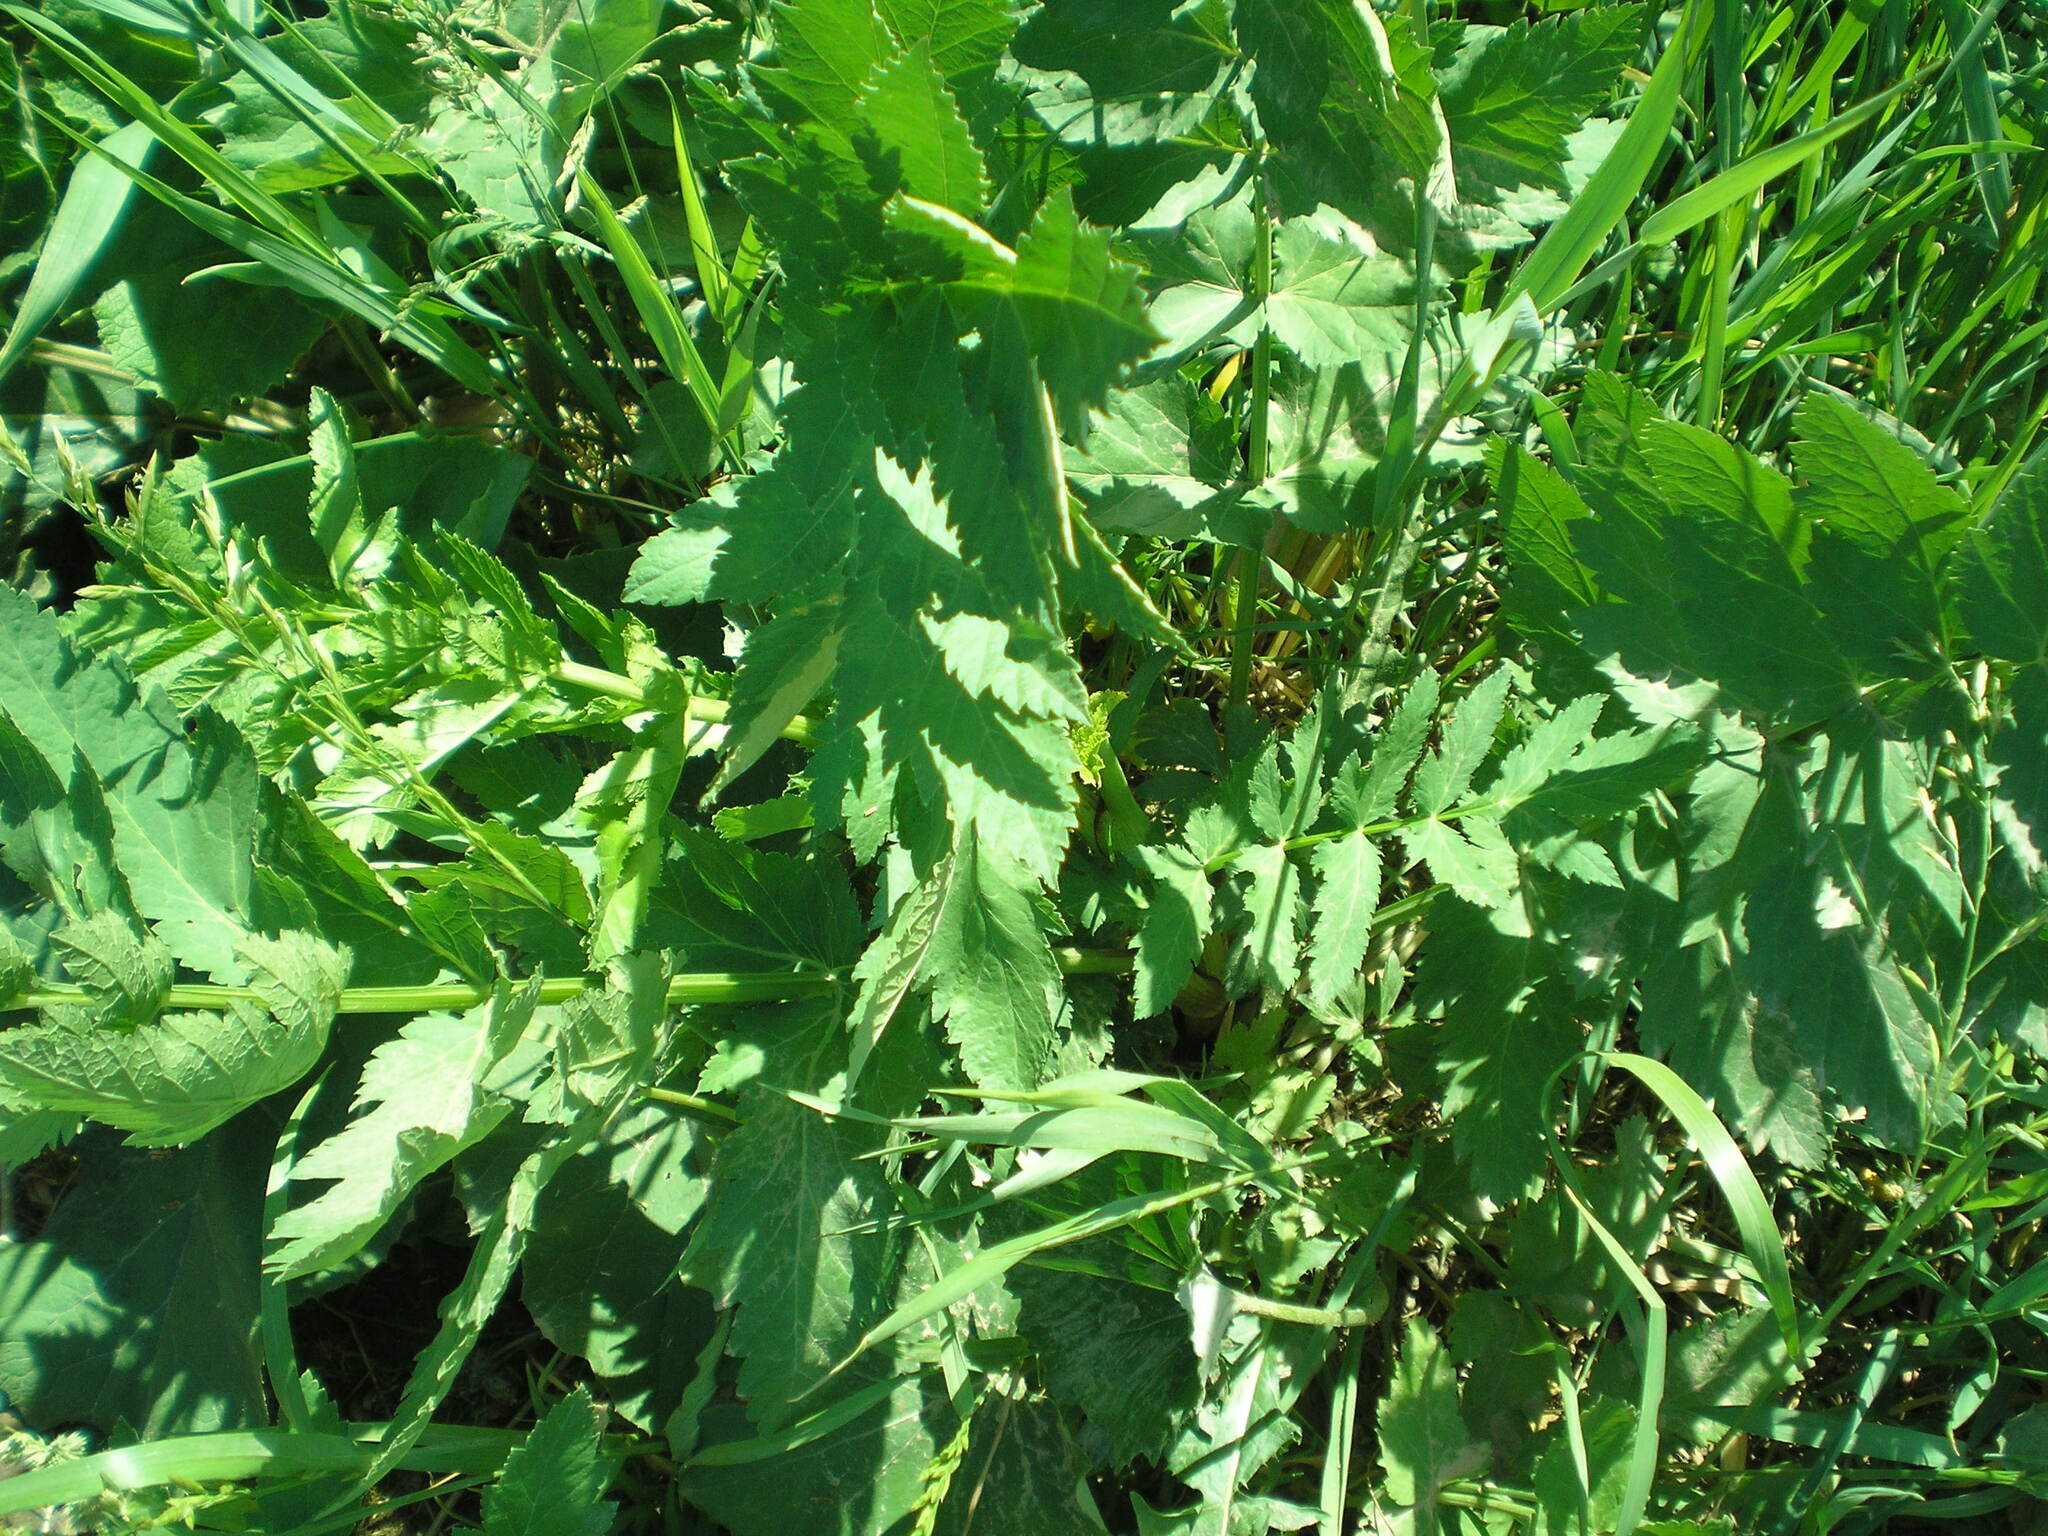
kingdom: Plantae
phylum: Tracheophyta
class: Magnoliopsida
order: Apiales
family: Apiaceae
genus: Pastinaca
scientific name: Pastinaca sativa
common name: Wild parsnip
